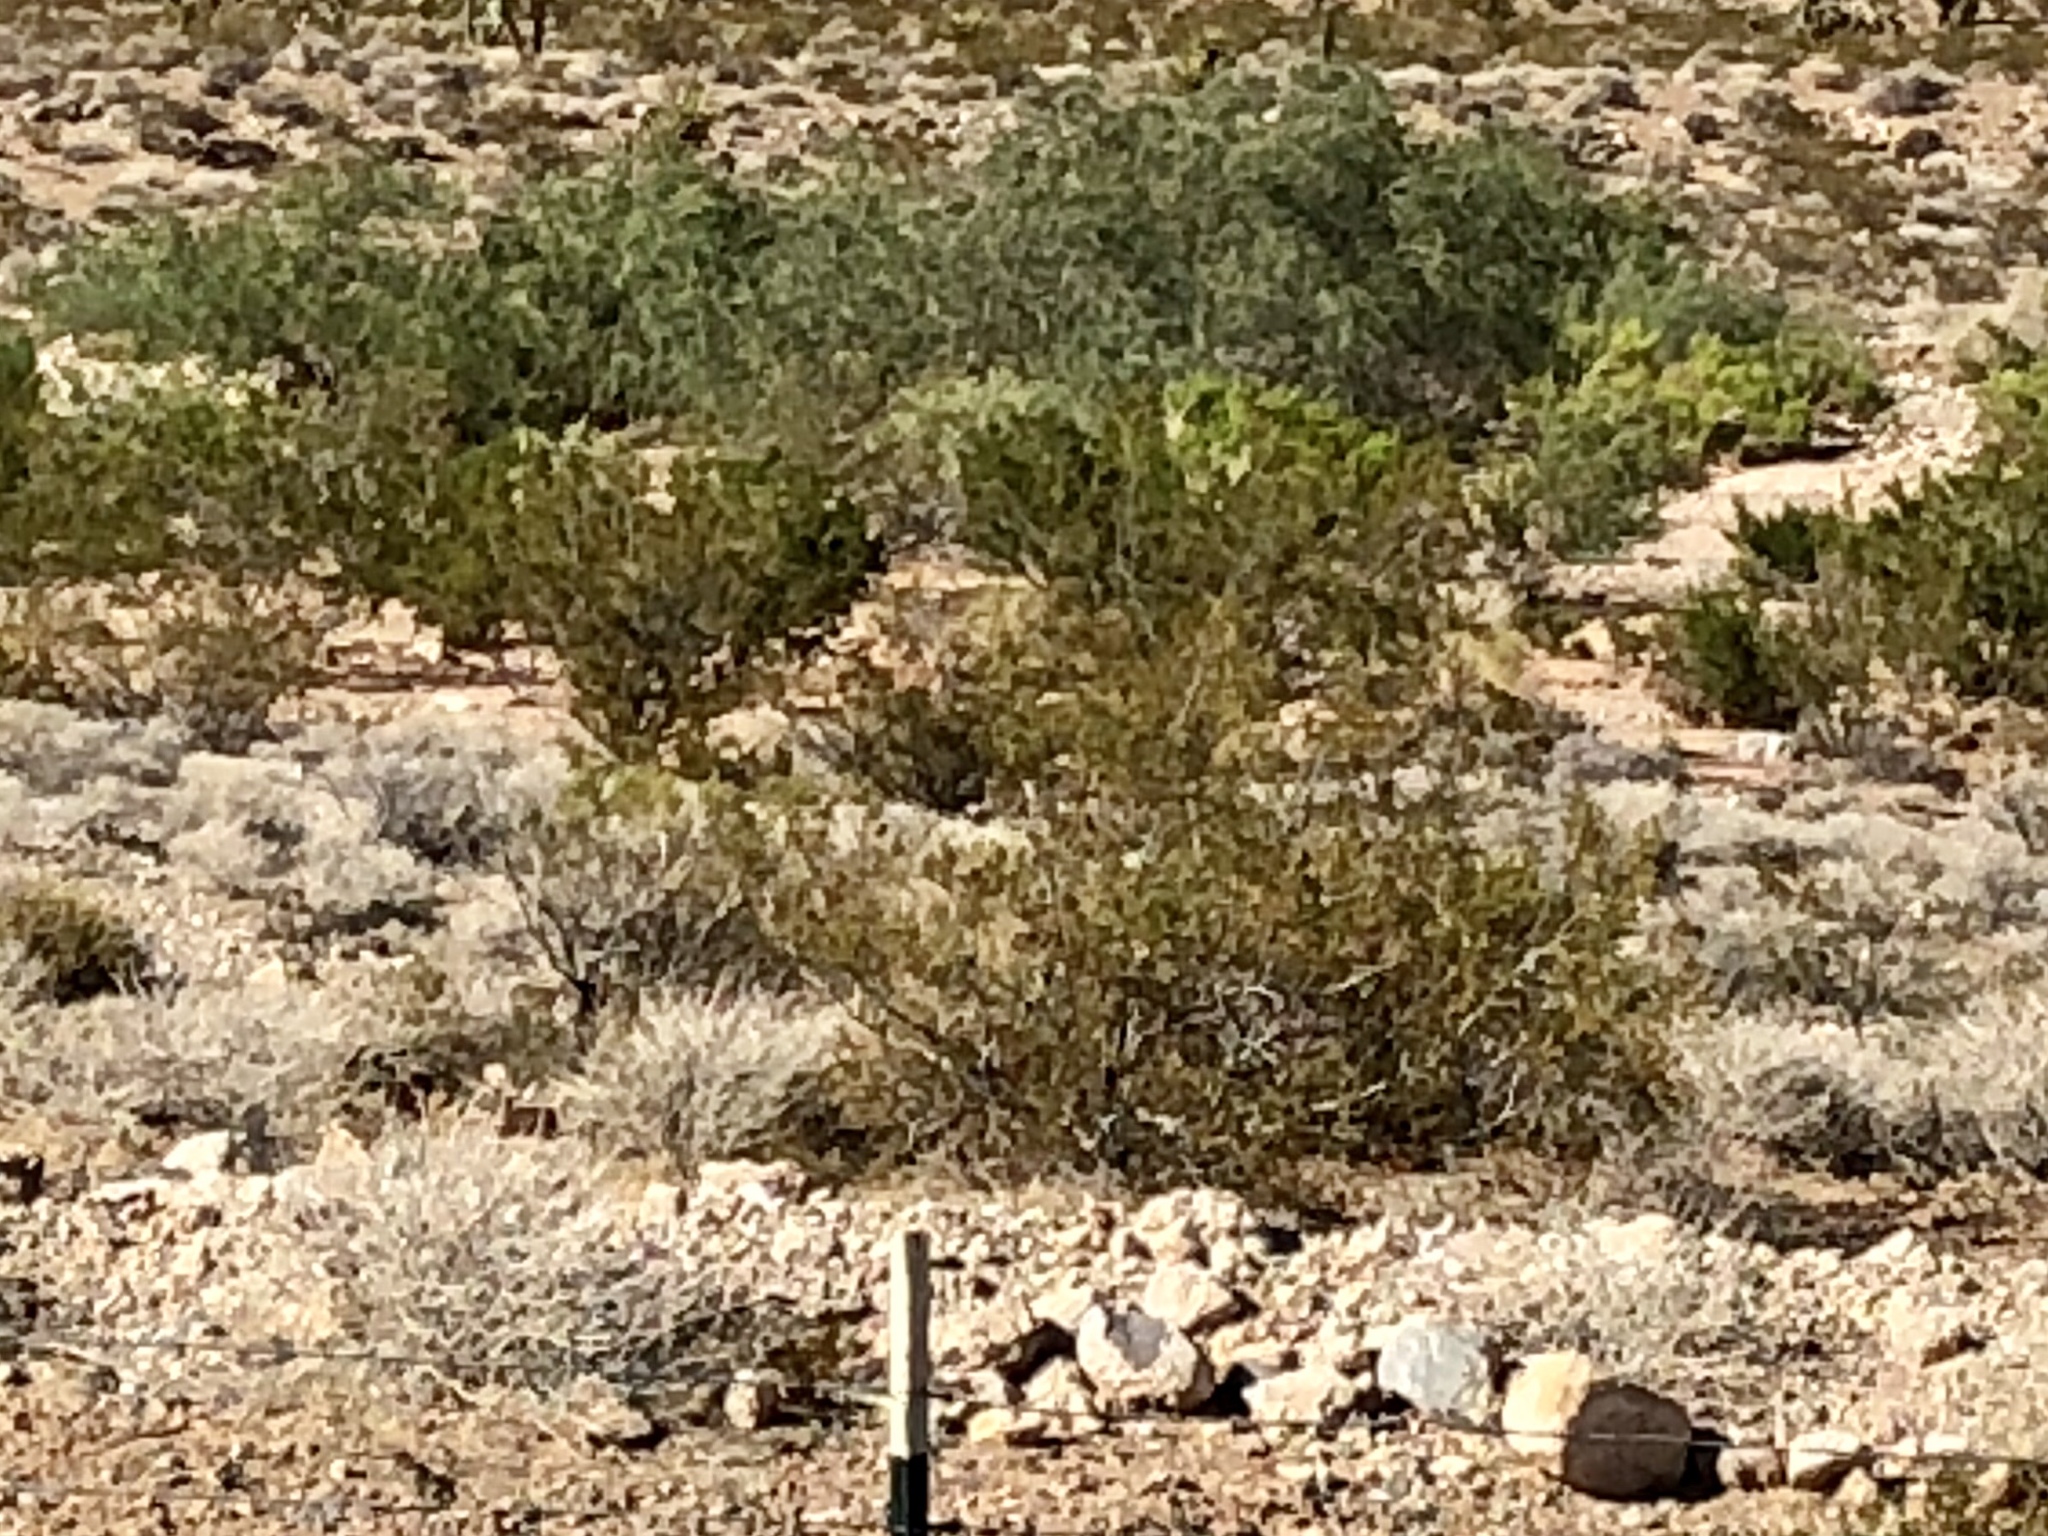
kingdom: Plantae
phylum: Tracheophyta
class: Magnoliopsida
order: Zygophyllales
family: Zygophyllaceae
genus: Larrea
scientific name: Larrea tridentata
